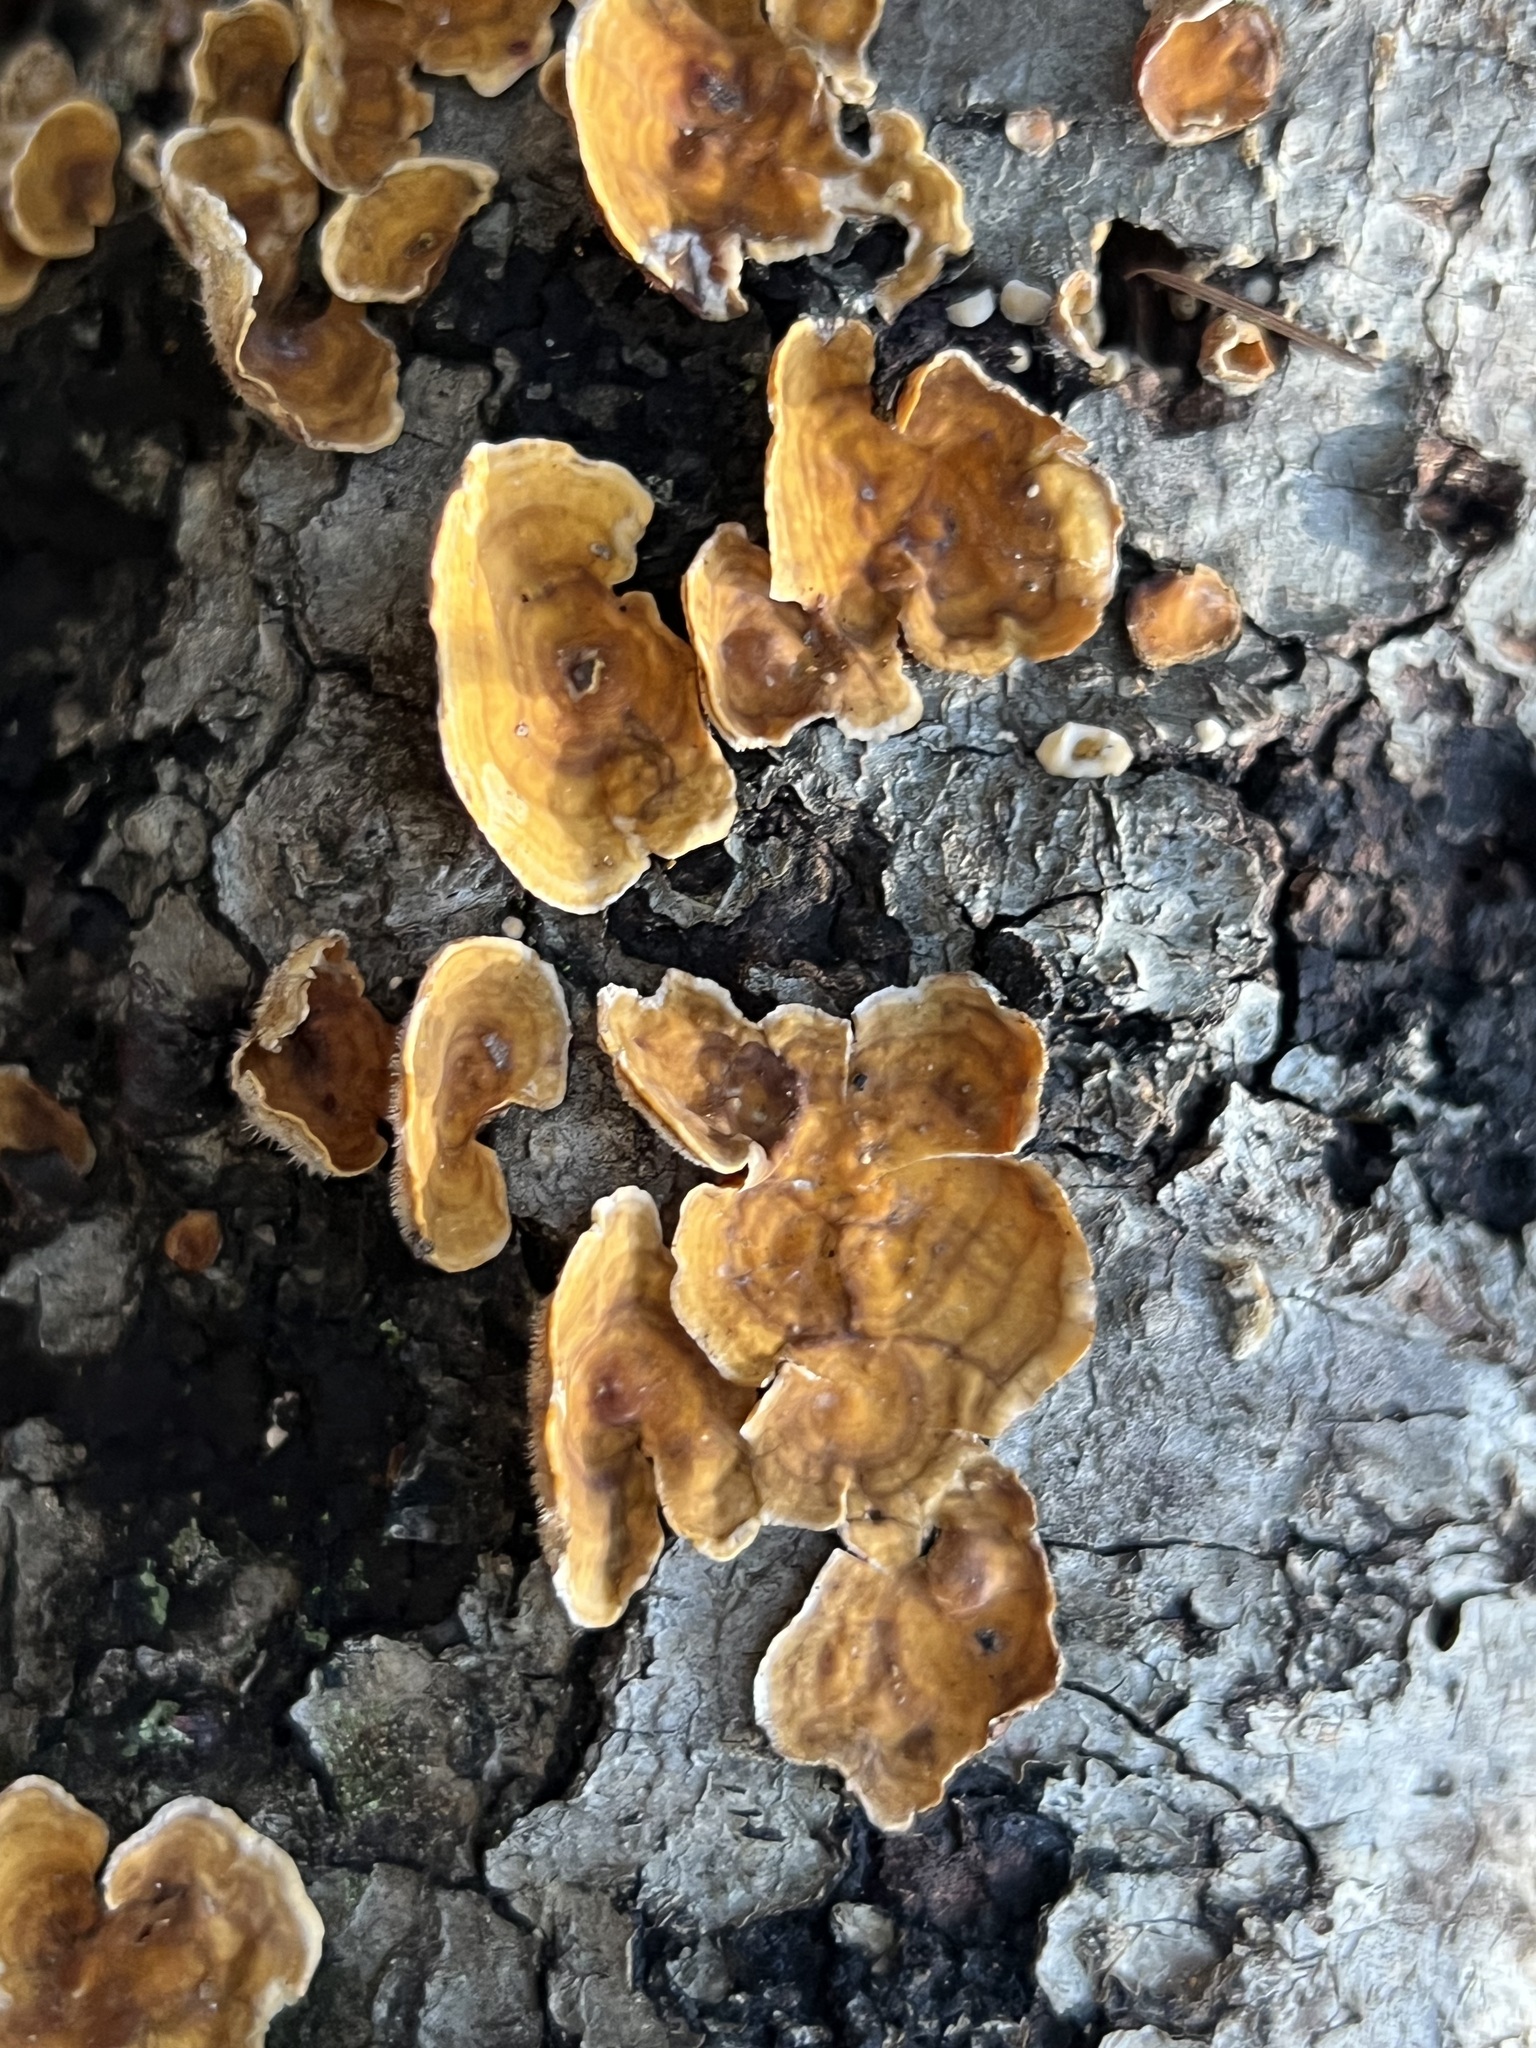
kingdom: Fungi
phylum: Basidiomycota
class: Agaricomycetes
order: Russulales
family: Stereaceae
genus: Stereum
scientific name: Stereum hirsutum
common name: Hairy curtain crust
